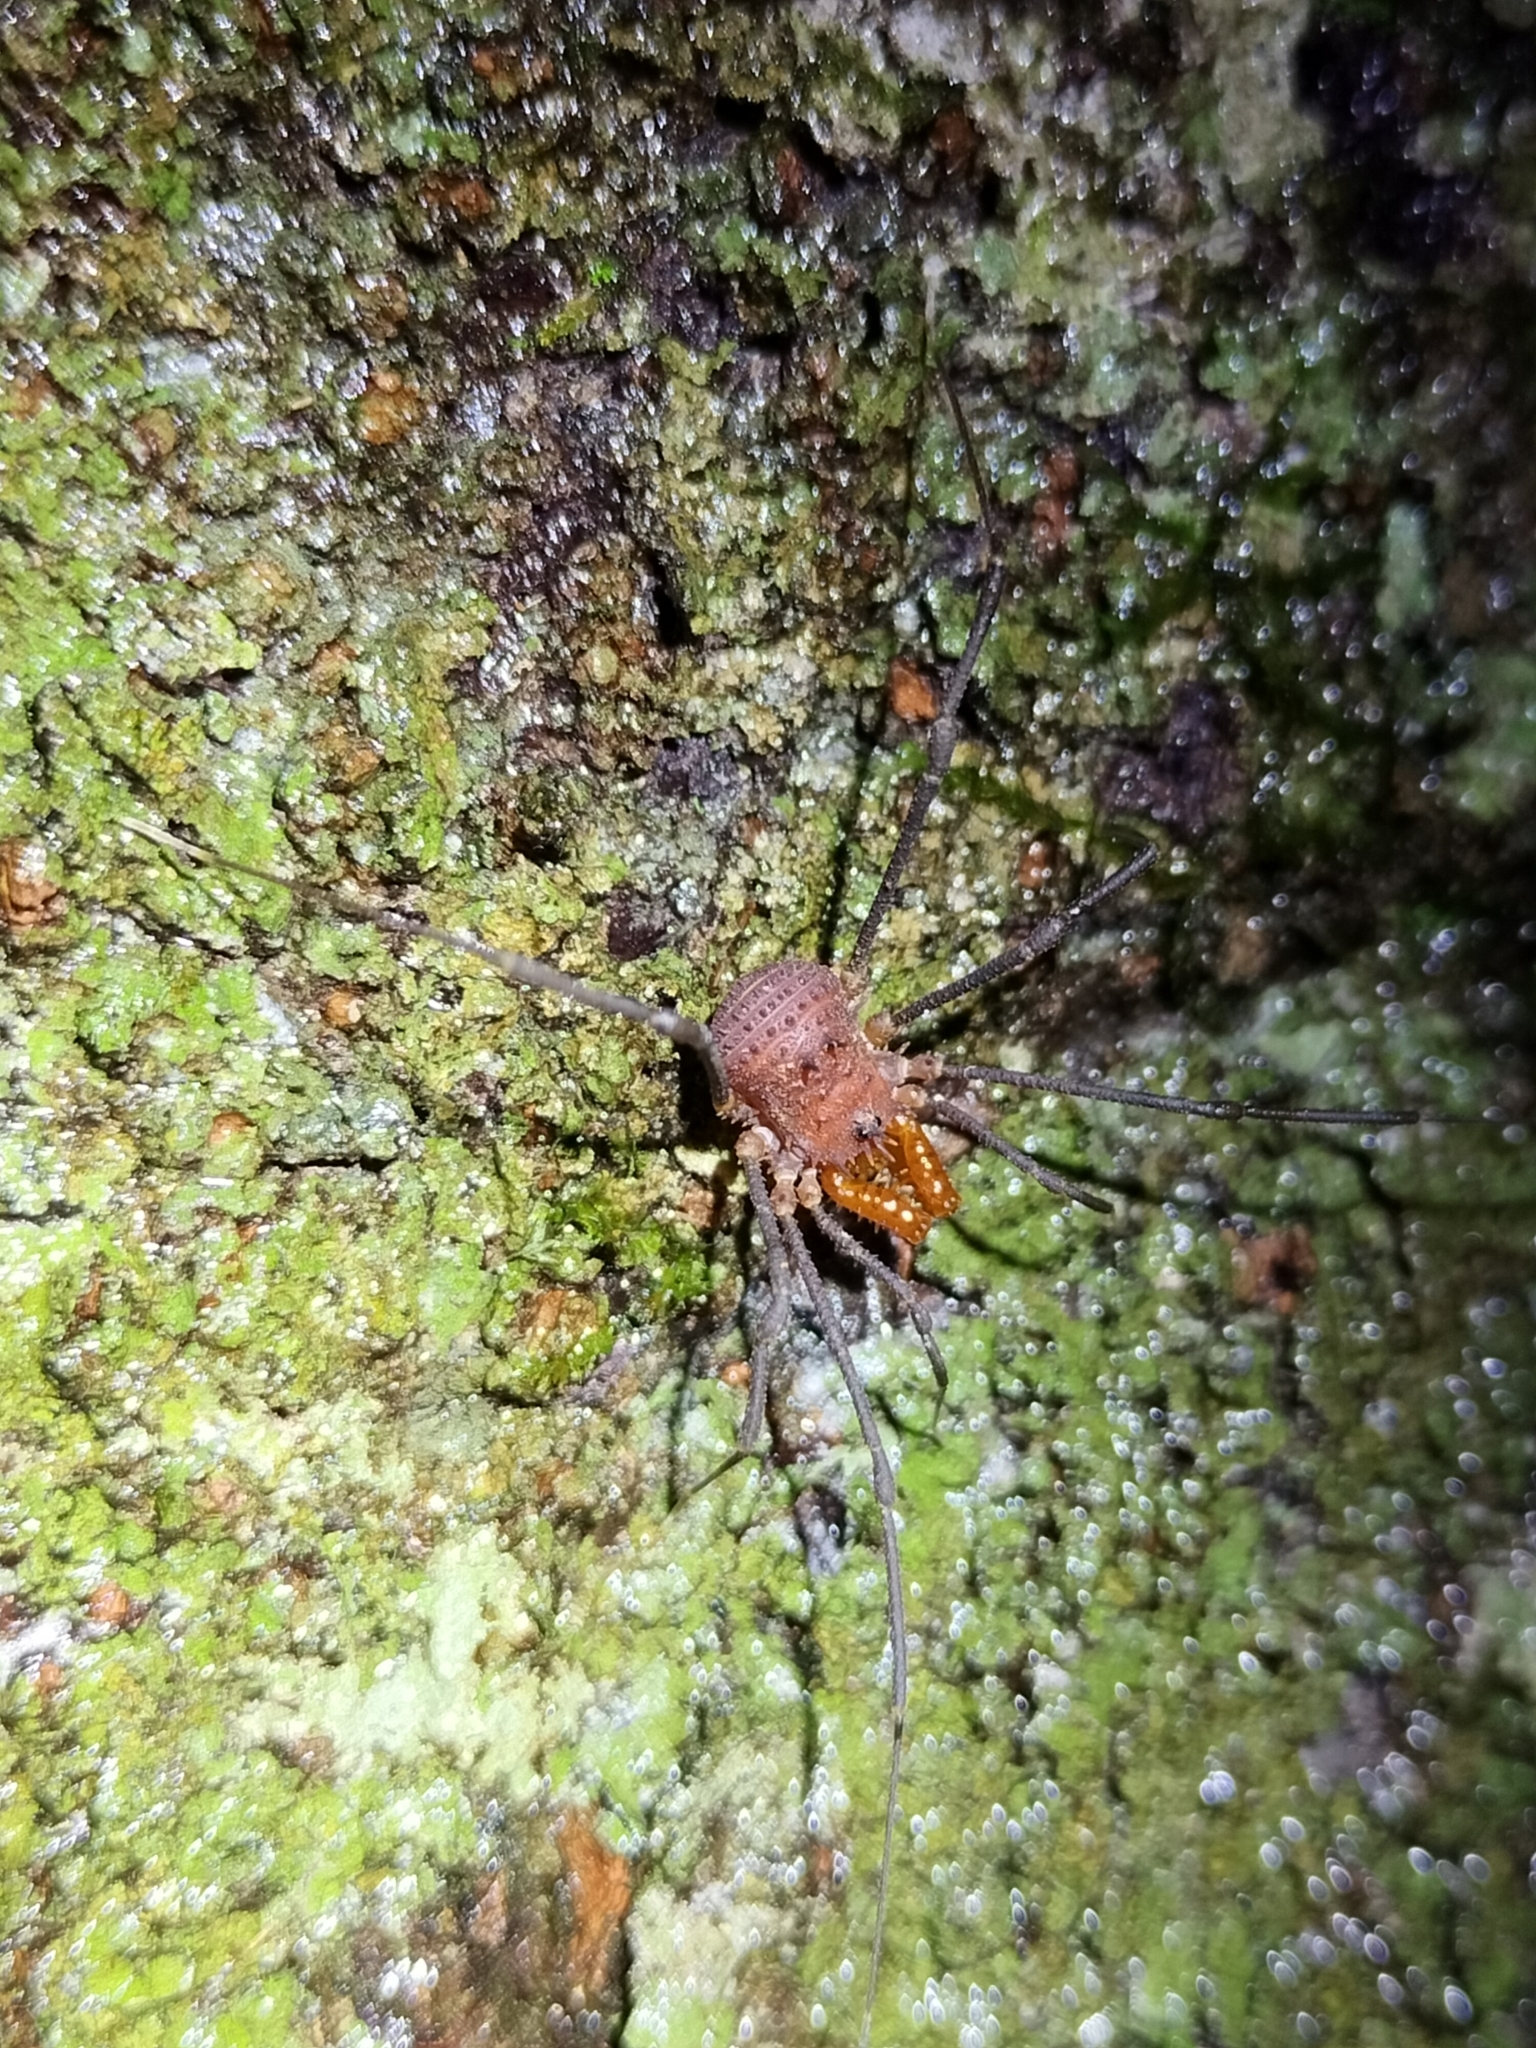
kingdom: Animalia
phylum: Arthropoda
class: Arachnida
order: Opiliones
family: Triaenonychidae
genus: Heteronuncia
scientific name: Heteronuncia robusta
